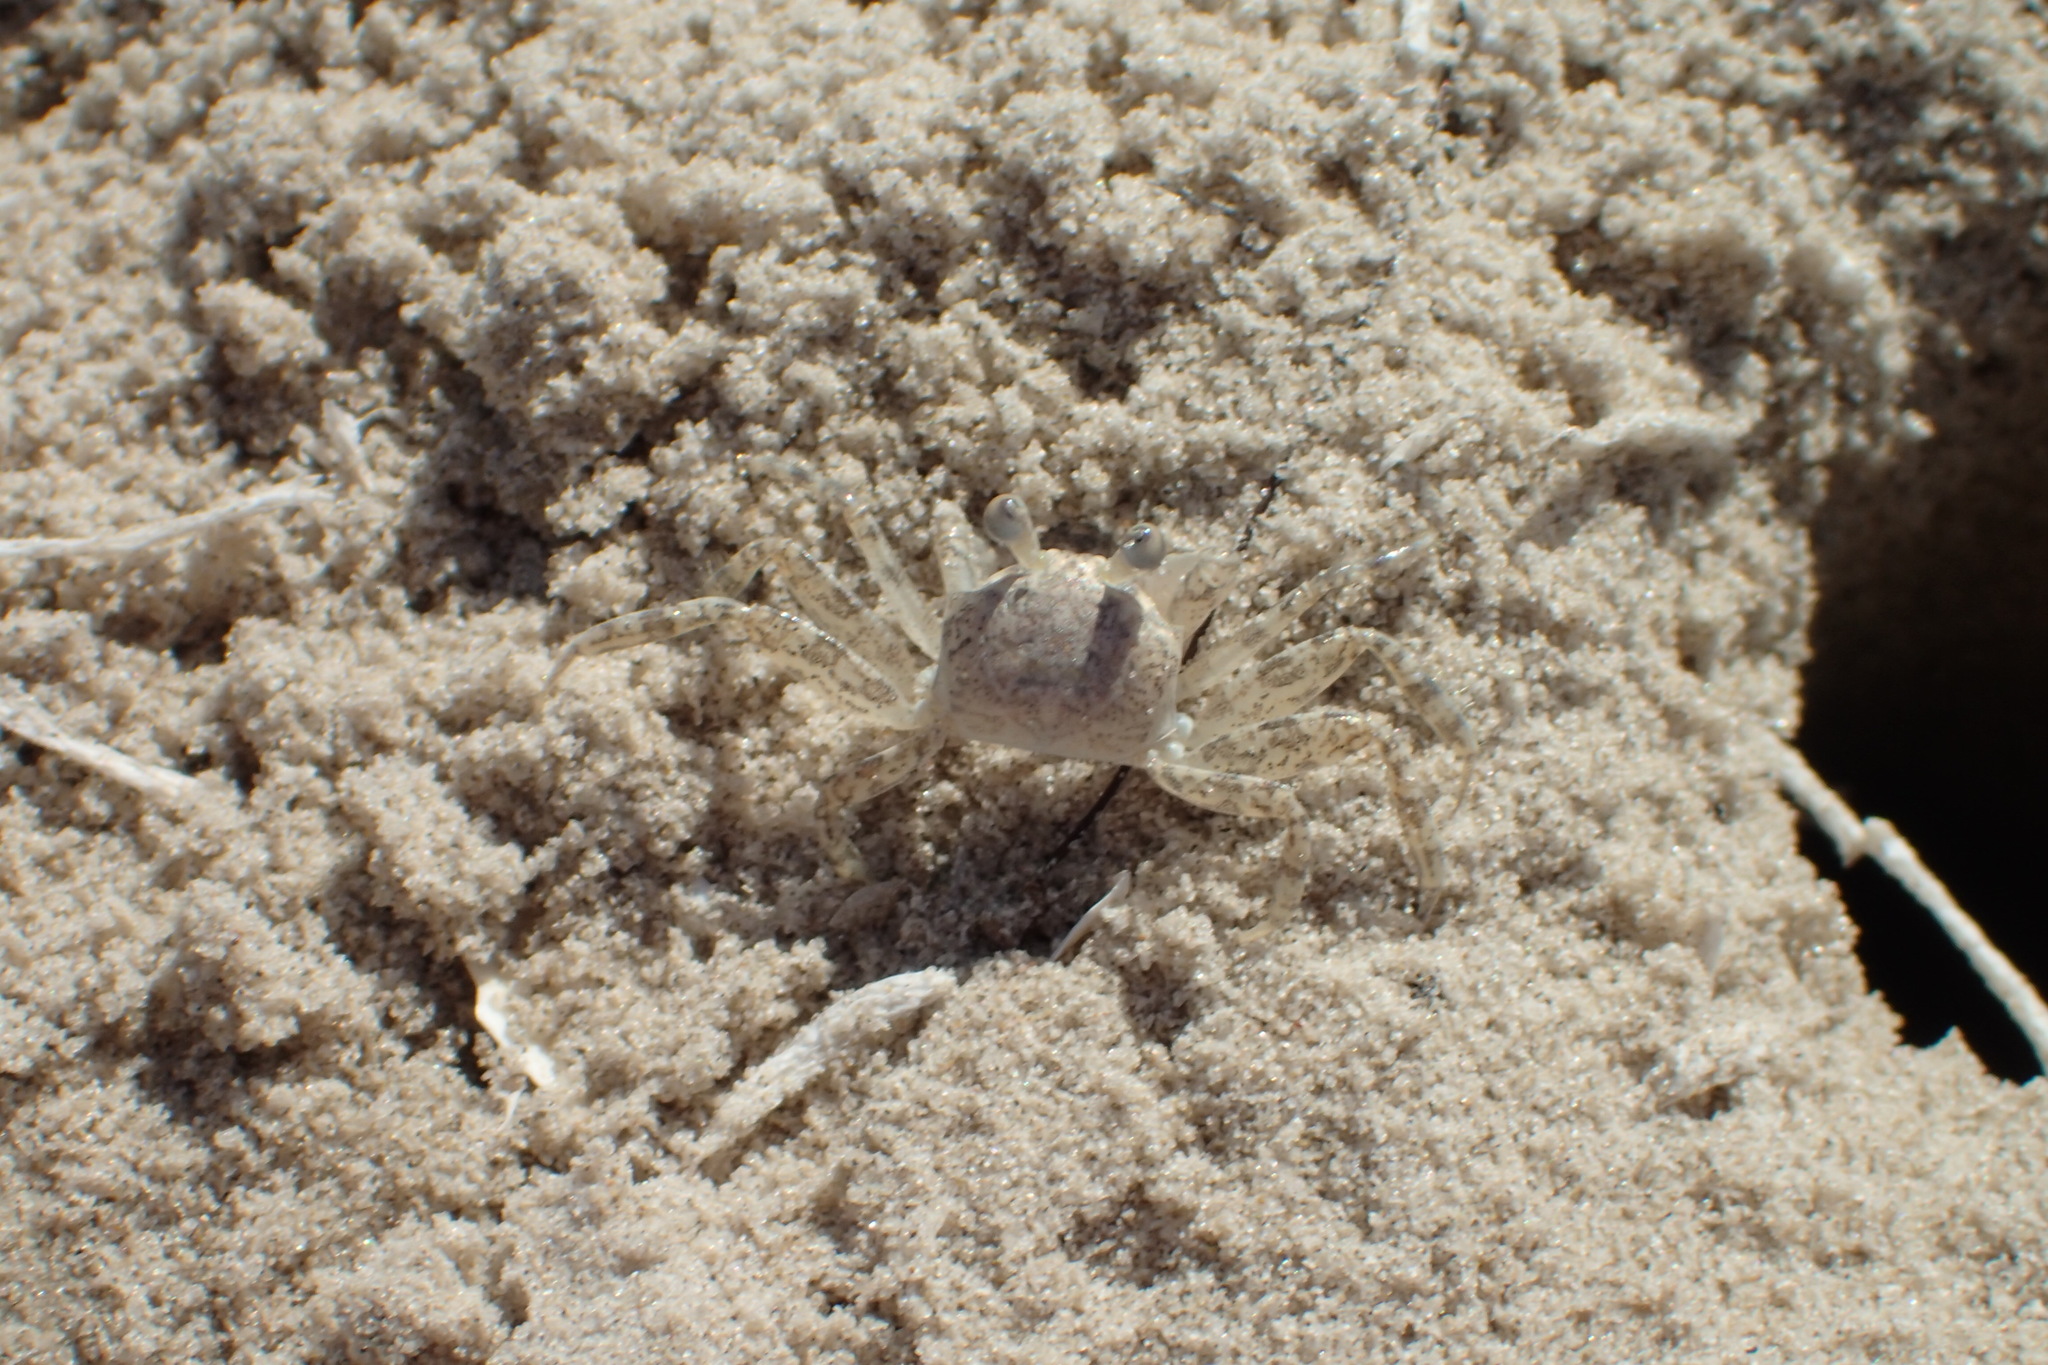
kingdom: Animalia
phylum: Arthropoda
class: Malacostraca
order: Decapoda
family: Ocypodidae
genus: Ocypode
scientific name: Ocypode quadrata
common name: Ghost crab
